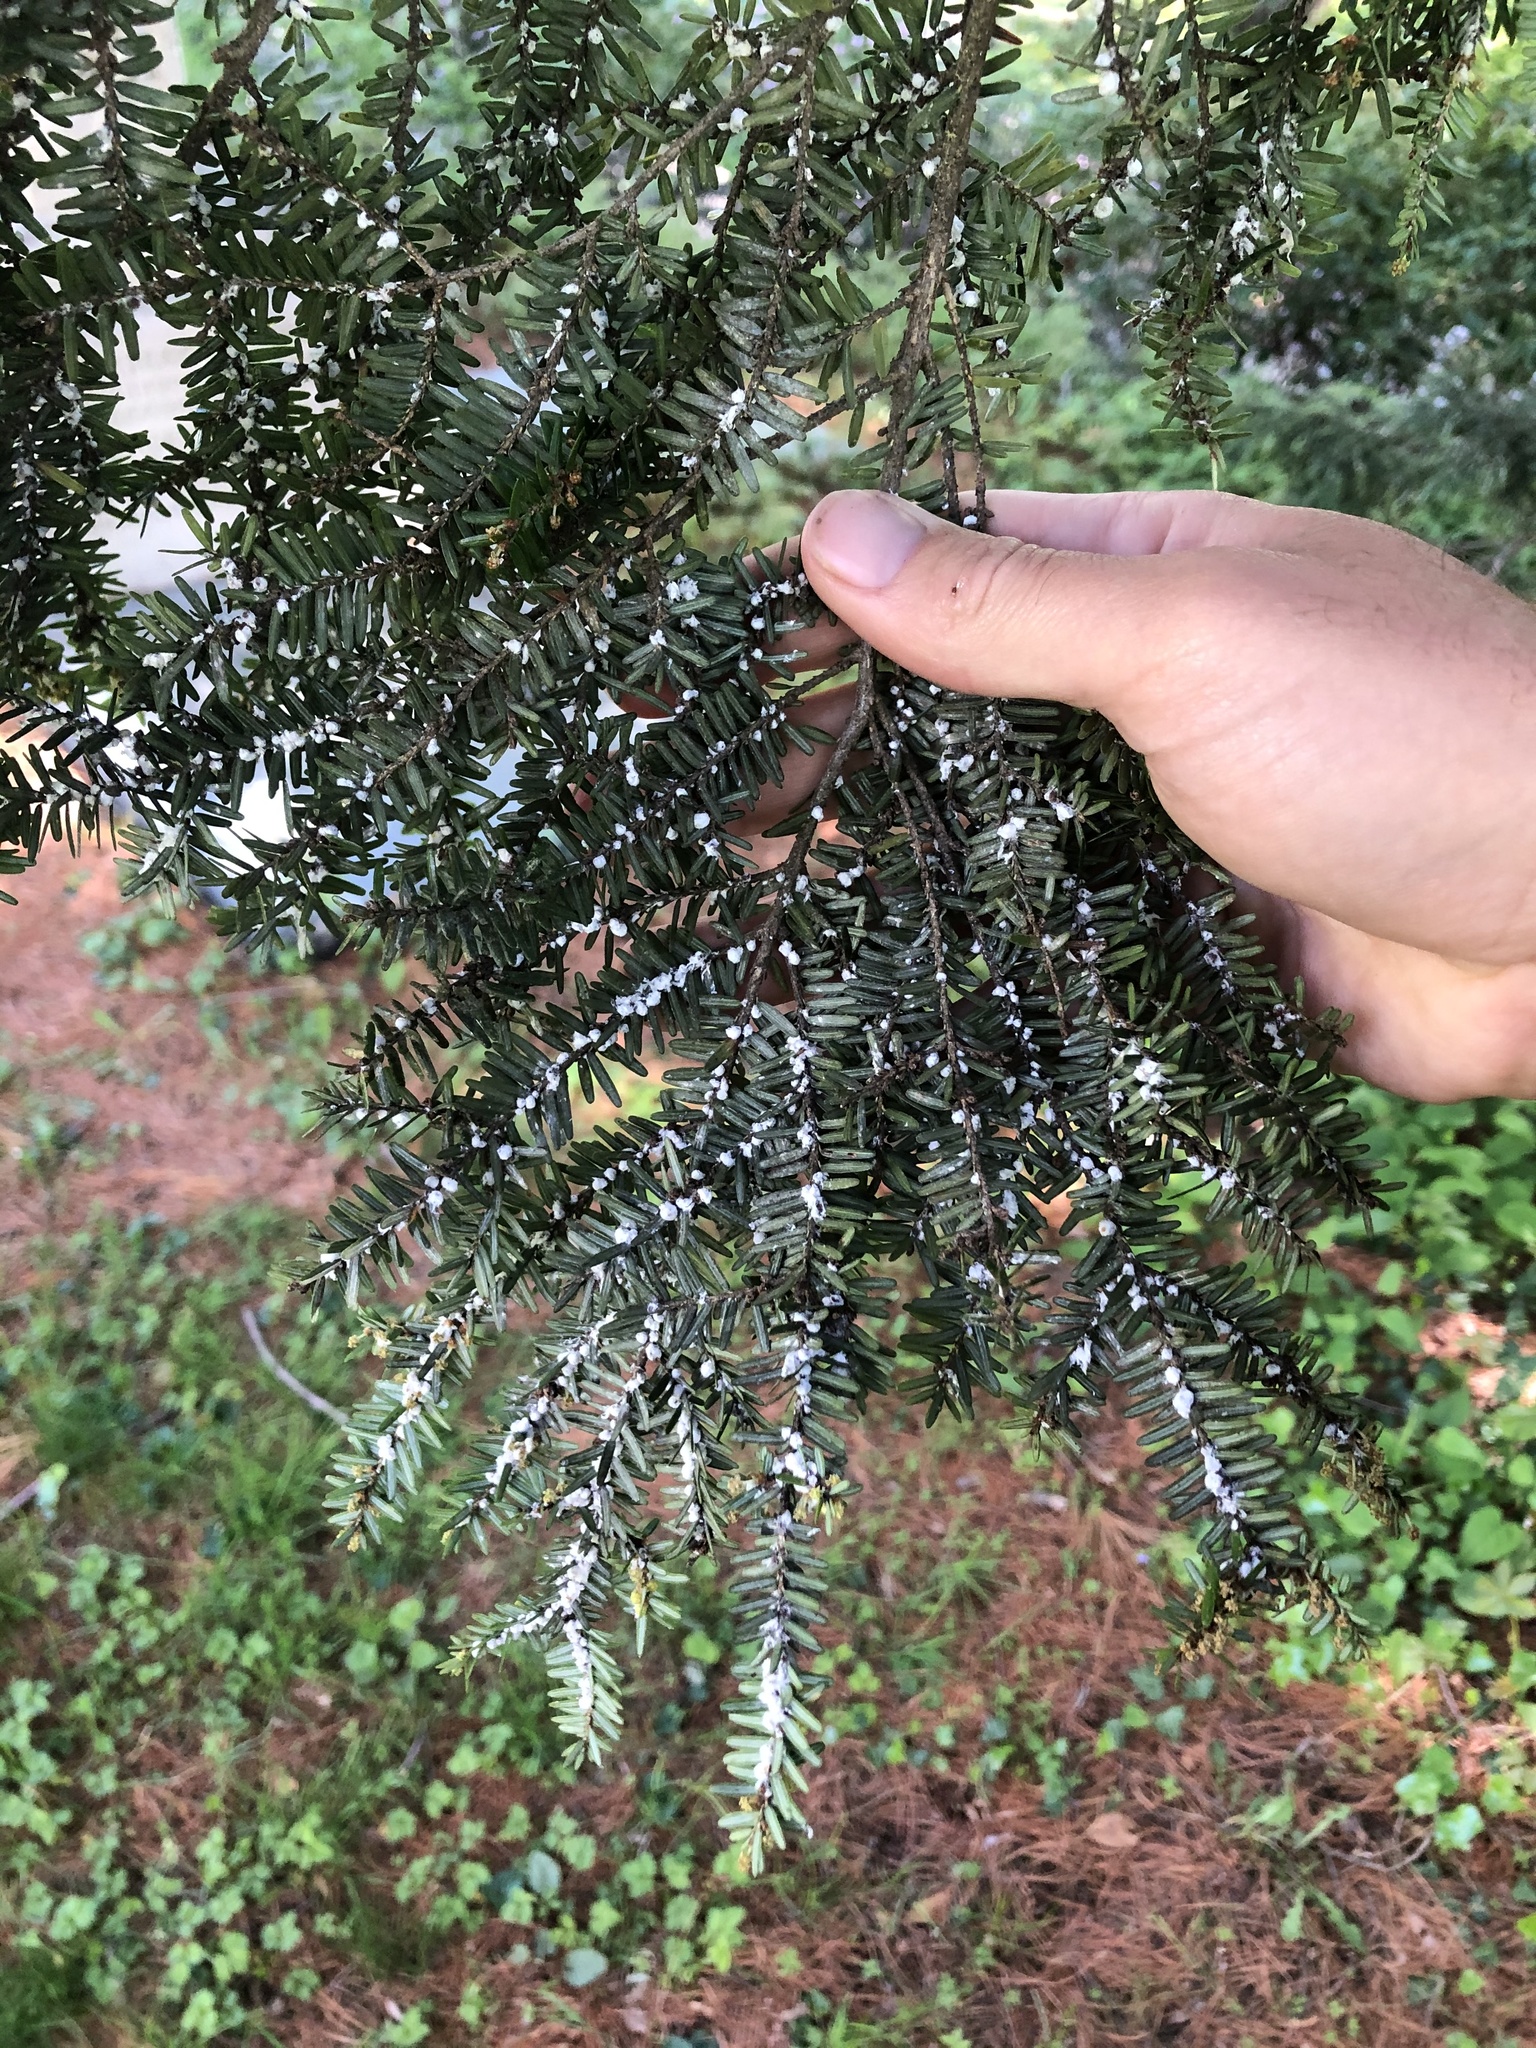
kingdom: Animalia
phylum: Arthropoda
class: Insecta
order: Hemiptera
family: Adelgidae
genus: Adelges
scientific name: Adelges tsugae
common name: Hemlock woolly adelgid
